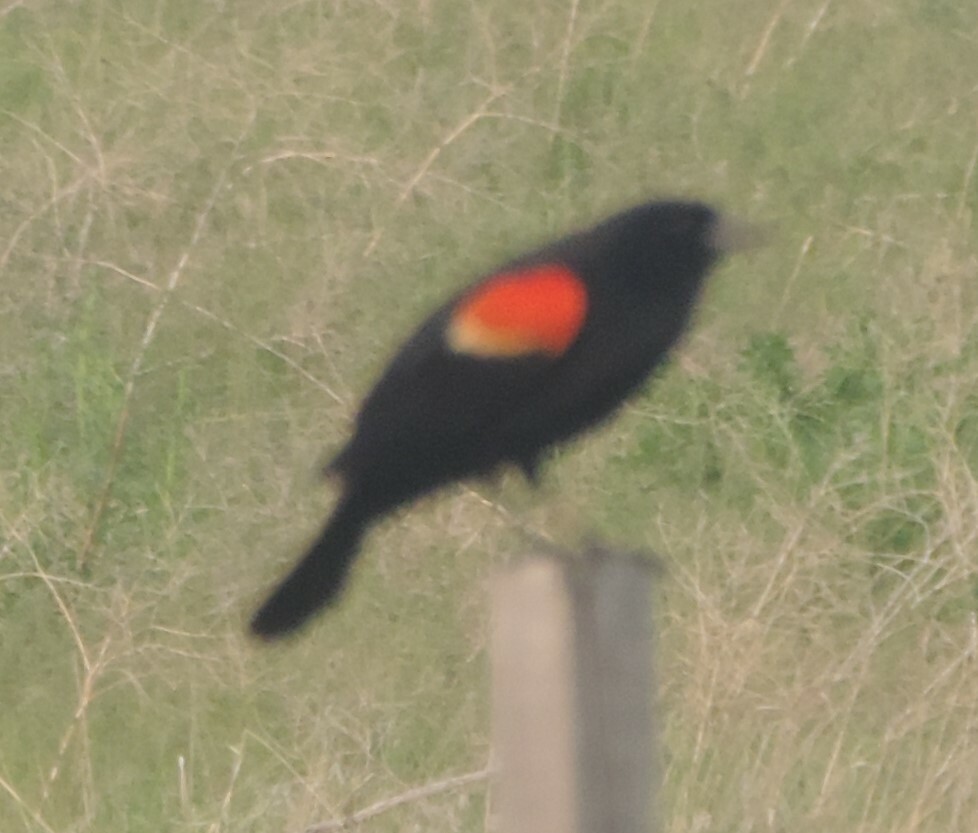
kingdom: Animalia
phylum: Chordata
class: Aves
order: Passeriformes
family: Icteridae
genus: Agelaius
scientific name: Agelaius phoeniceus
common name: Red-winged blackbird
